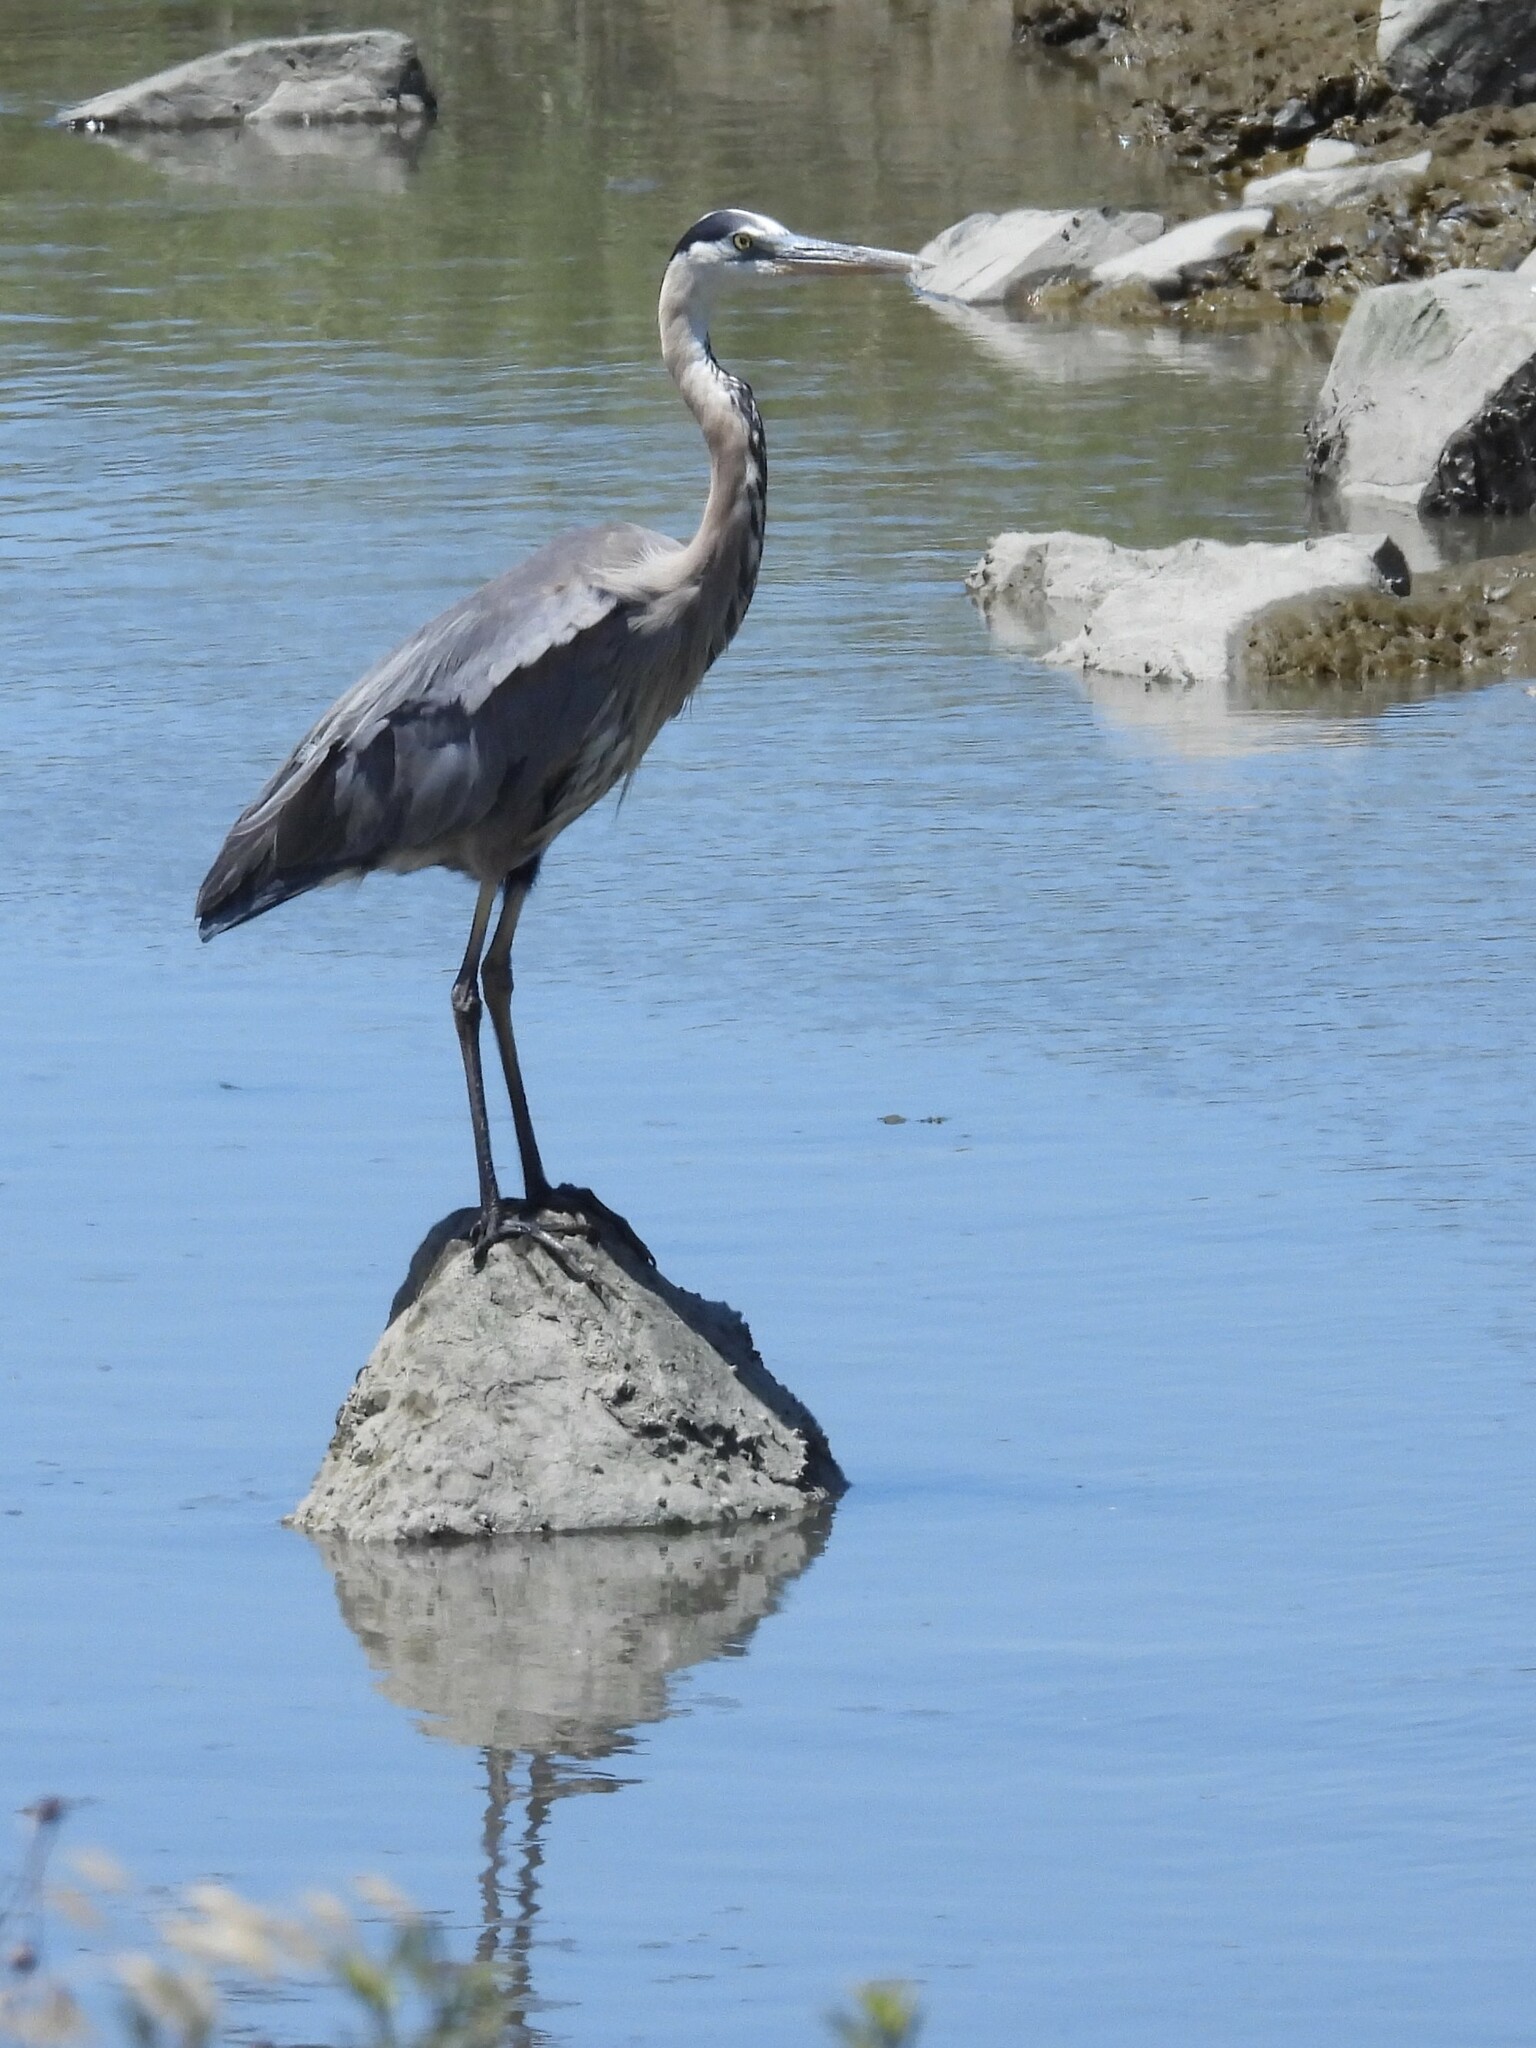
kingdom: Animalia
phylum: Chordata
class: Aves
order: Pelecaniformes
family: Ardeidae
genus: Ardea
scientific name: Ardea herodias
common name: Great blue heron
